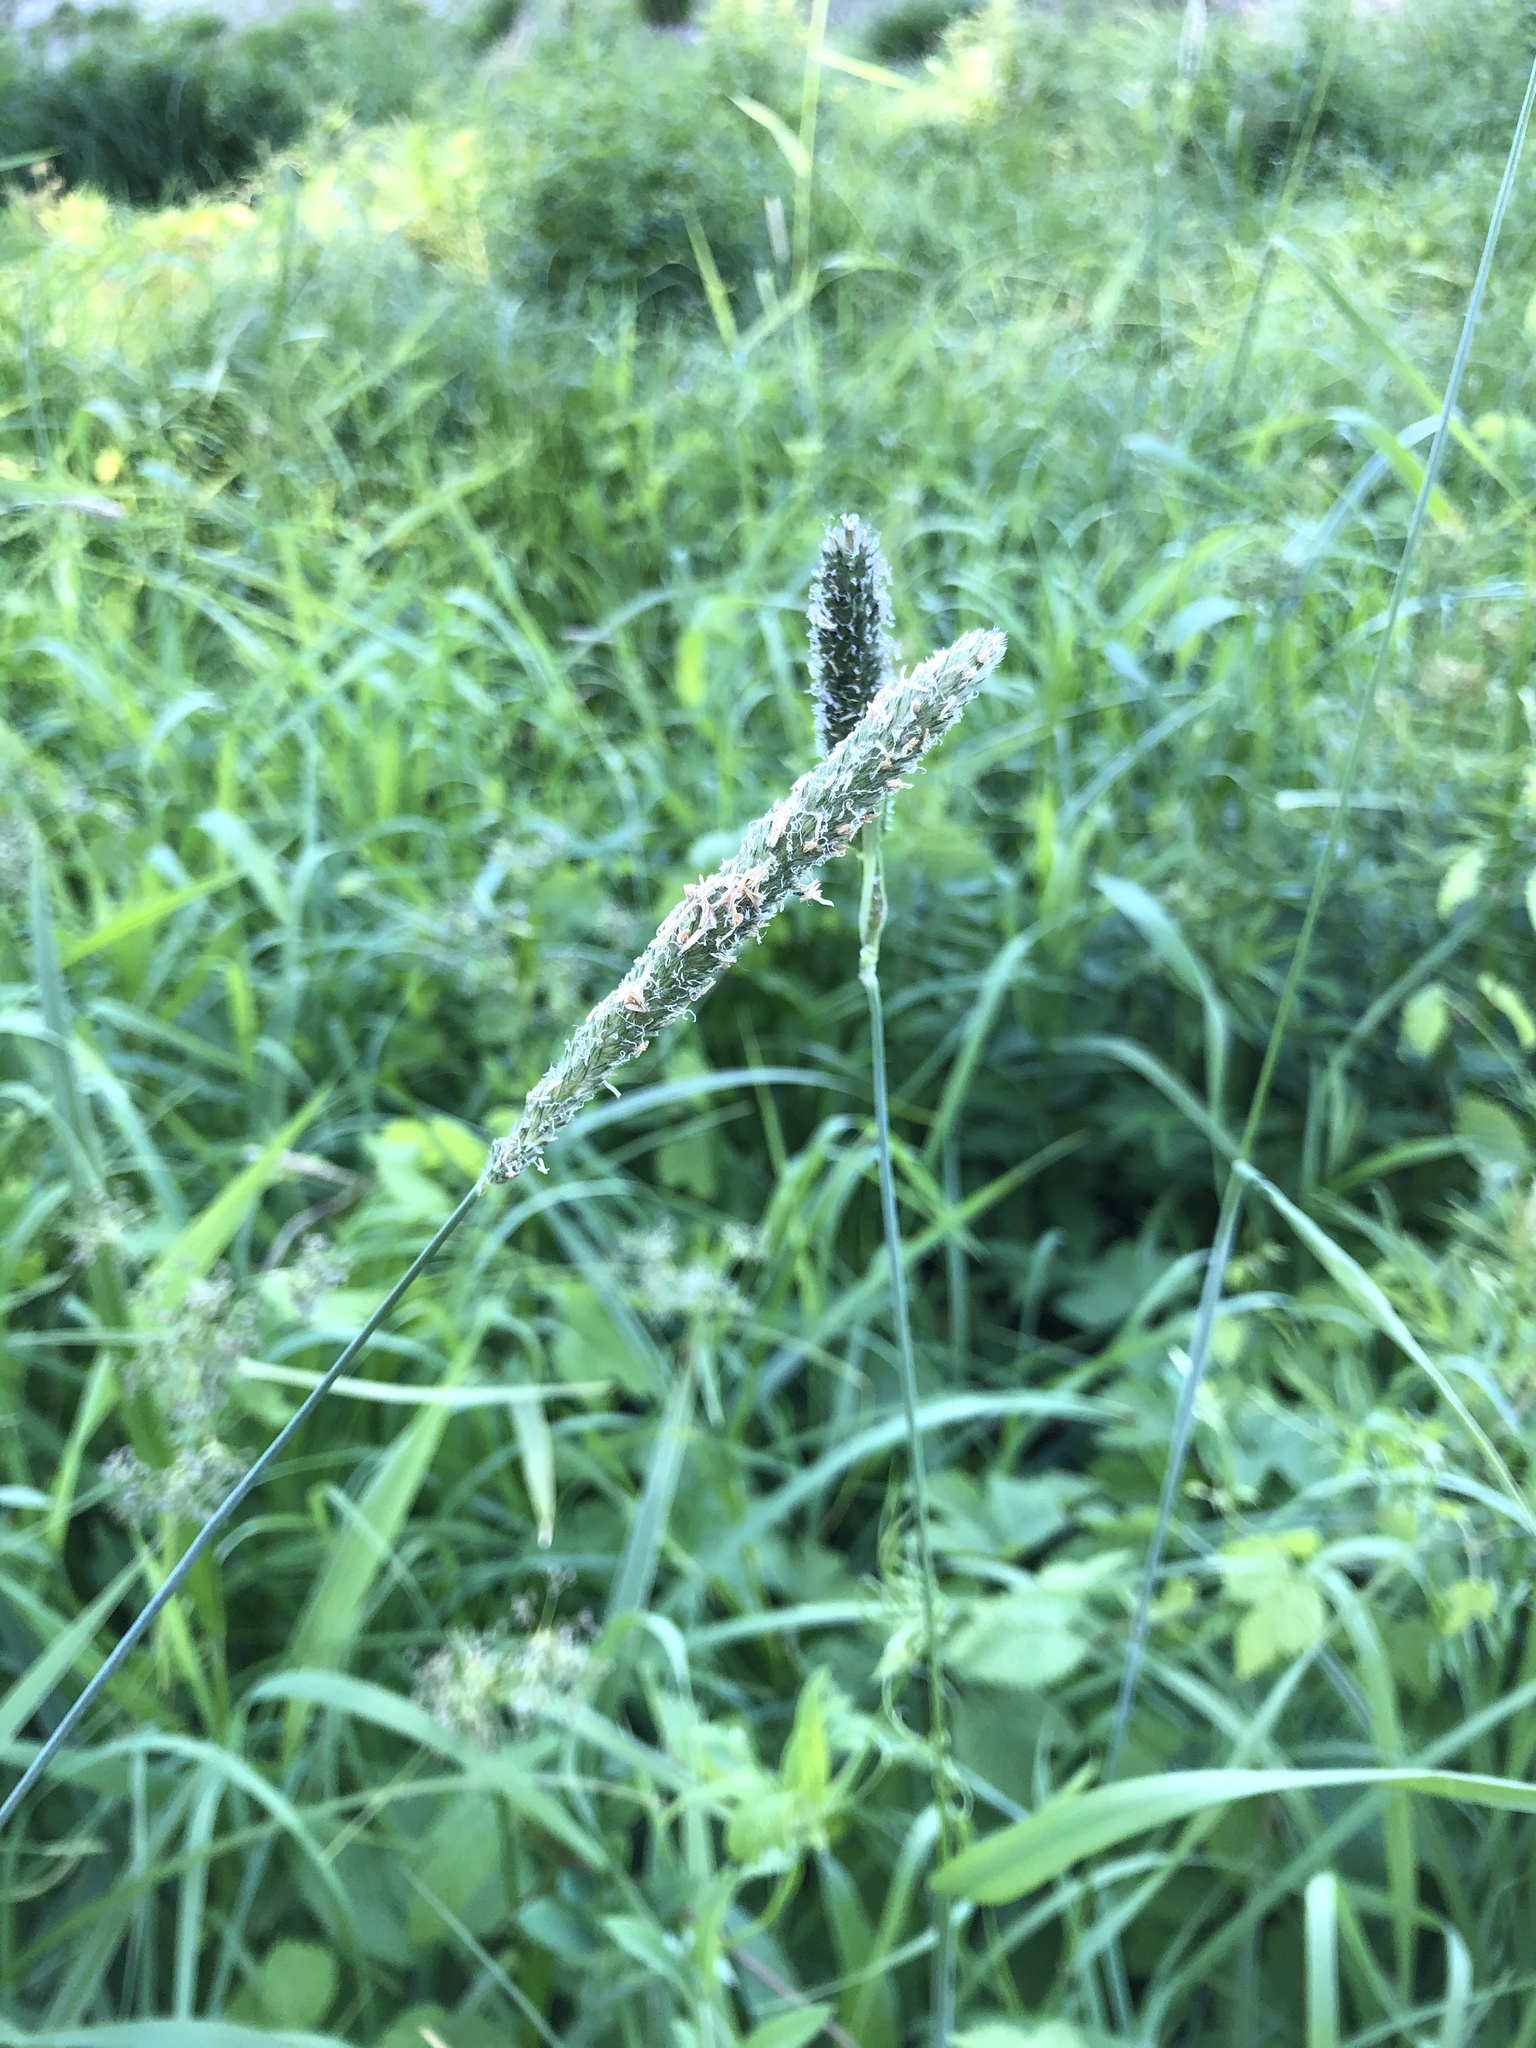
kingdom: Plantae
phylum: Tracheophyta
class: Liliopsida
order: Poales
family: Poaceae
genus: Alopecurus
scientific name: Alopecurus pratensis
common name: Meadow foxtail
